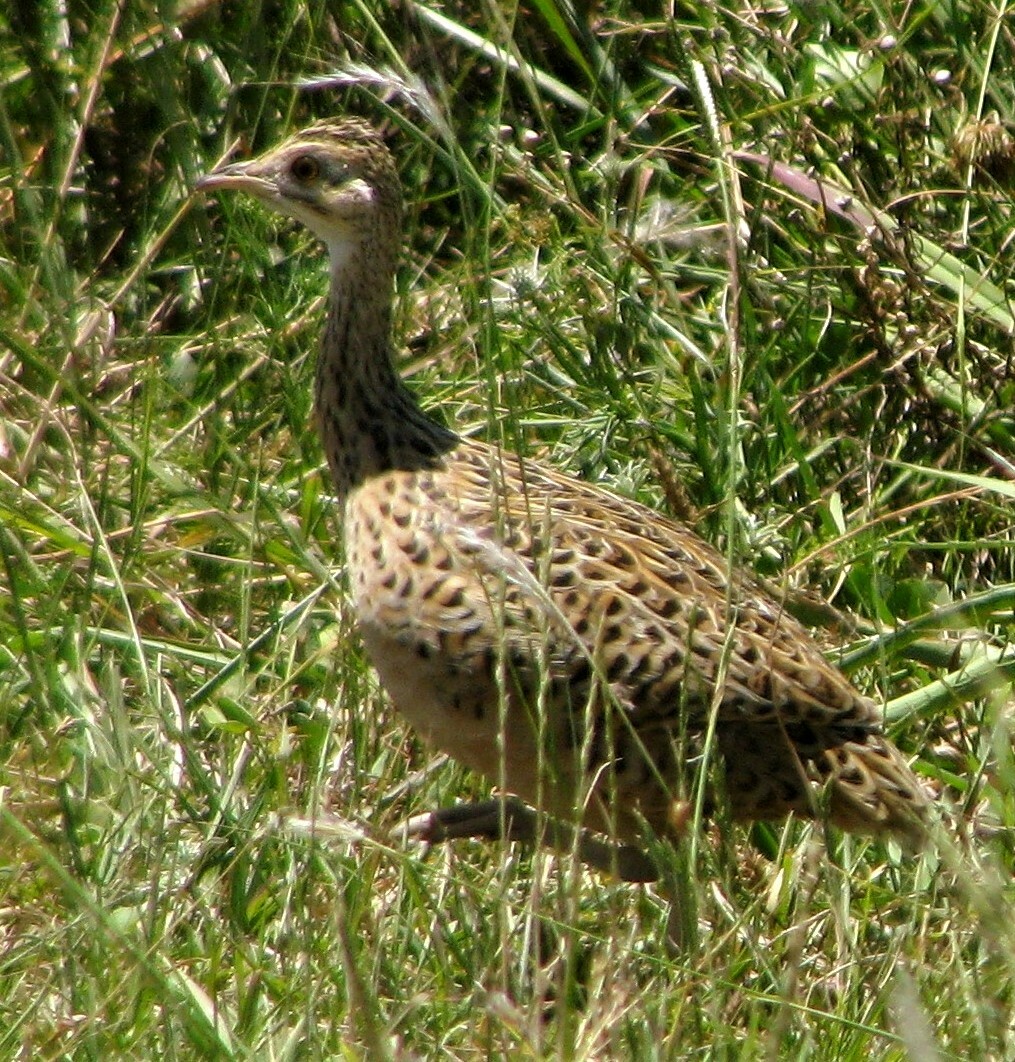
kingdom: Animalia
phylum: Chordata
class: Aves
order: Tinamiformes
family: Tinamidae
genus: Nothura
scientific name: Nothura maculosa
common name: Spotted nothura
